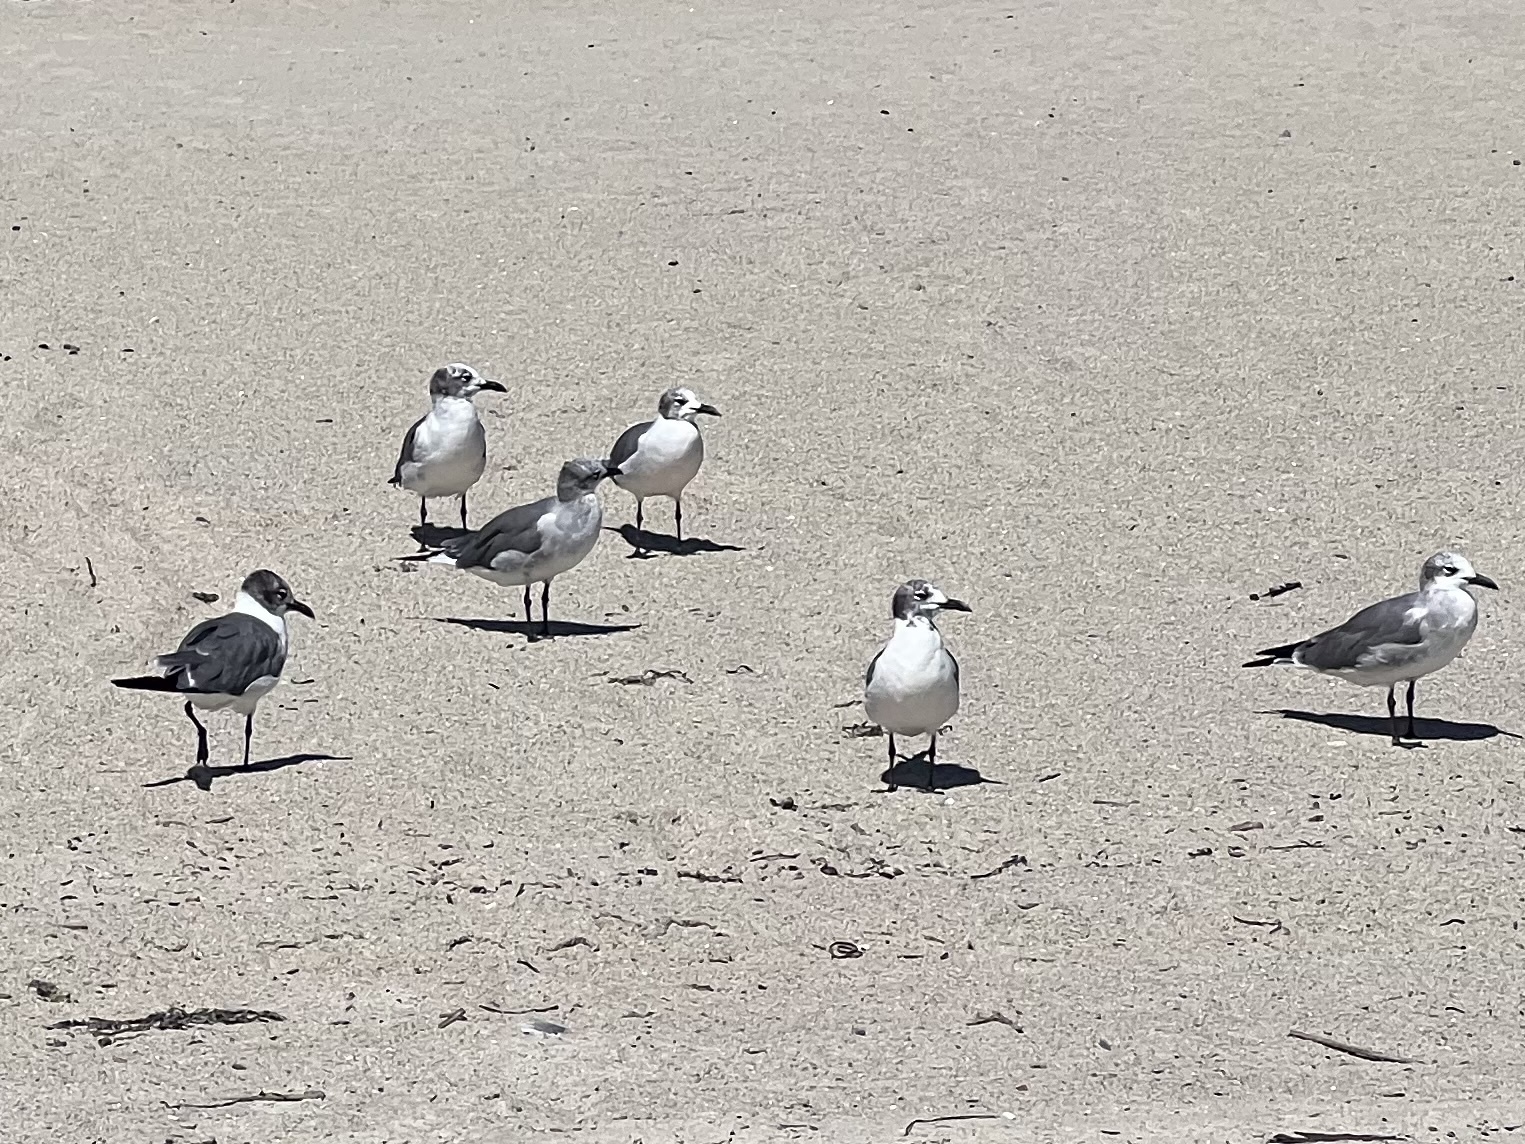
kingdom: Animalia
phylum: Chordata
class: Aves
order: Charadriiformes
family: Laridae
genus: Leucophaeus
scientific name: Leucophaeus atricilla
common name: Laughing gull
